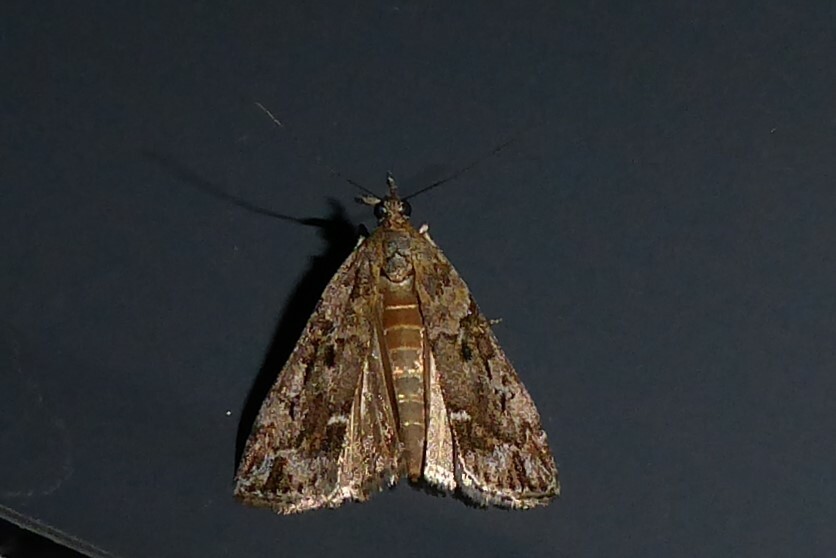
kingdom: Animalia
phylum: Arthropoda
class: Insecta
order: Lepidoptera
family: Crambidae
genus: Eudonia
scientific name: Eudonia submarginalis
